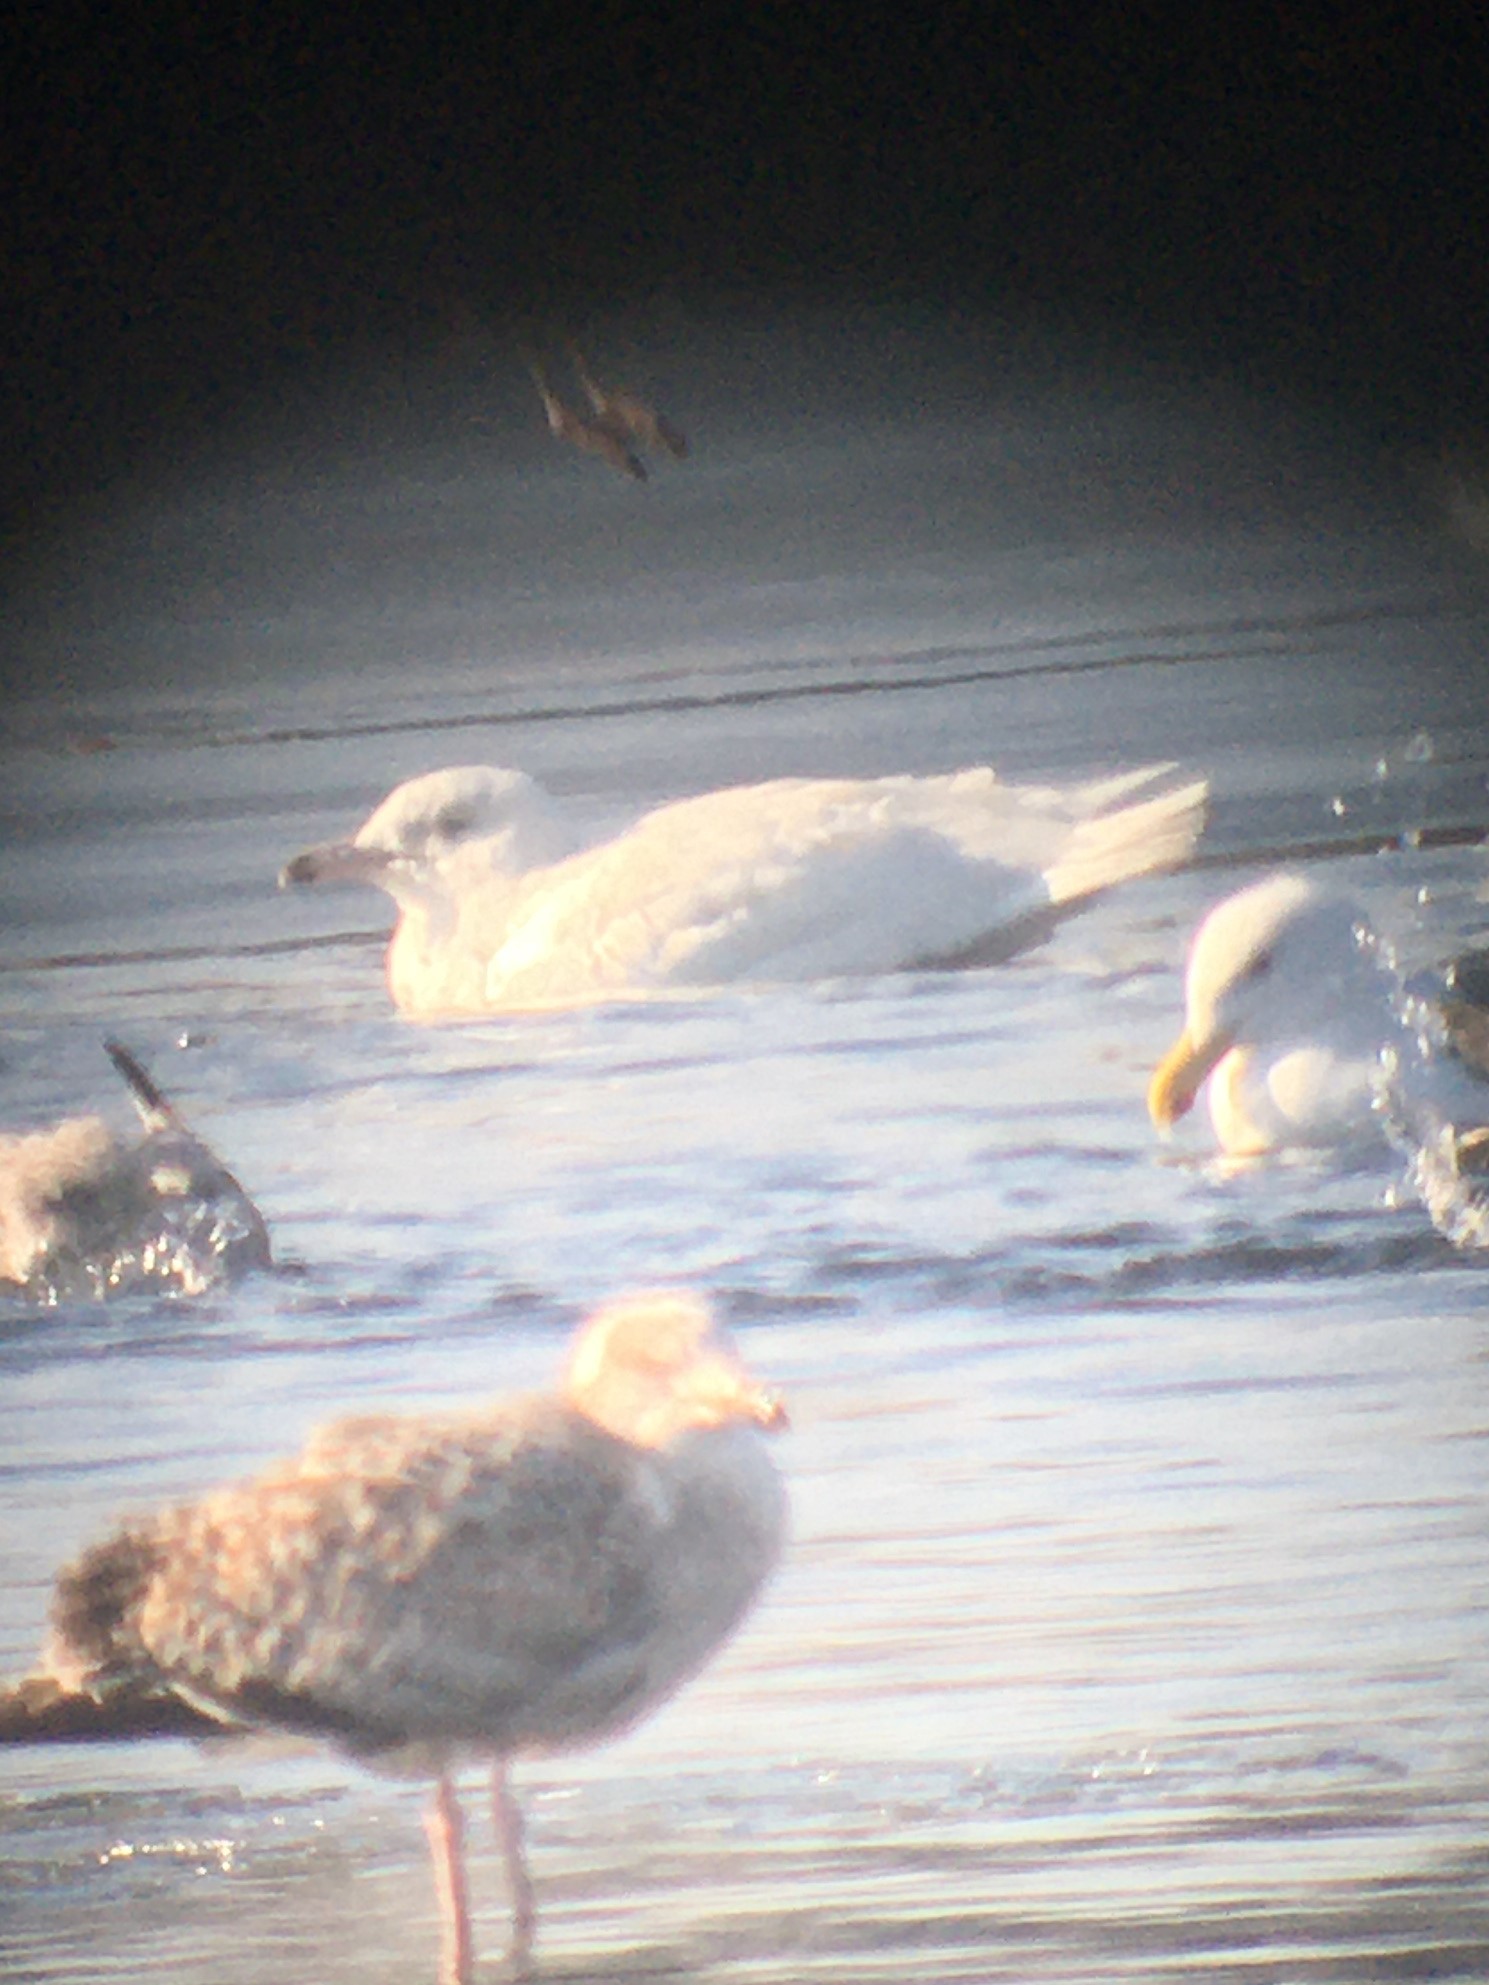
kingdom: Animalia
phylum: Chordata
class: Aves
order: Charadriiformes
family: Laridae
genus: Larus
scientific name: Larus hyperboreus
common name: Glaucous gull
